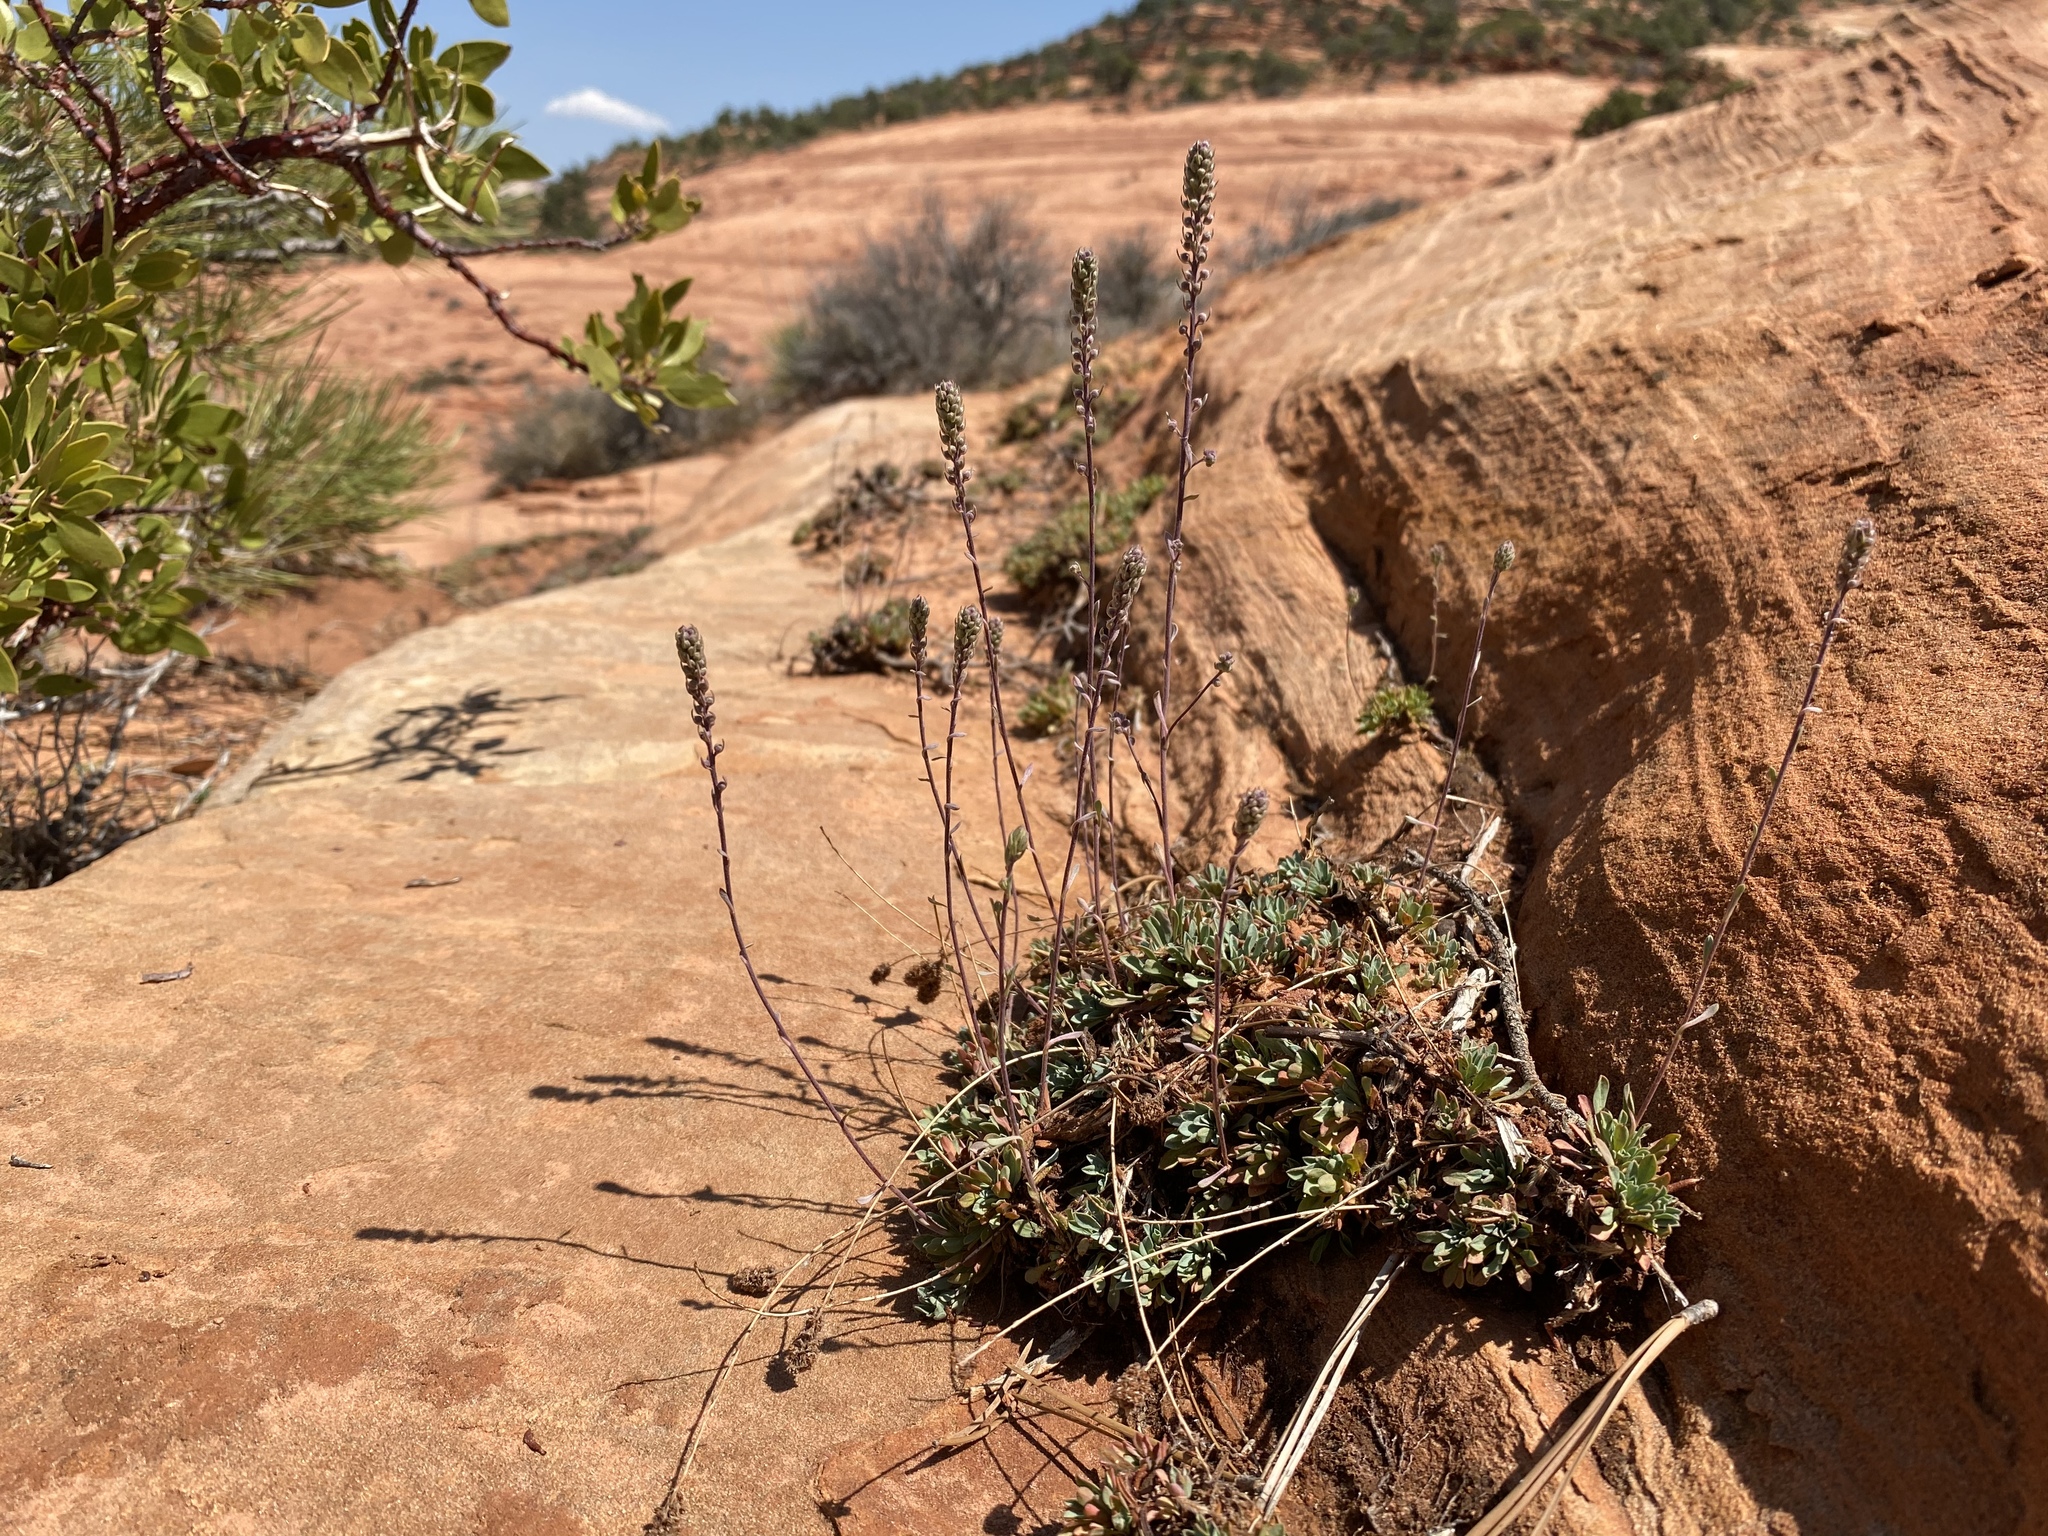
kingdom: Plantae
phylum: Tracheophyta
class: Magnoliopsida
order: Rosales
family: Rosaceae
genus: Petrophytum
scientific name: Petrophytum caespitosum
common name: Mat rockspirea
